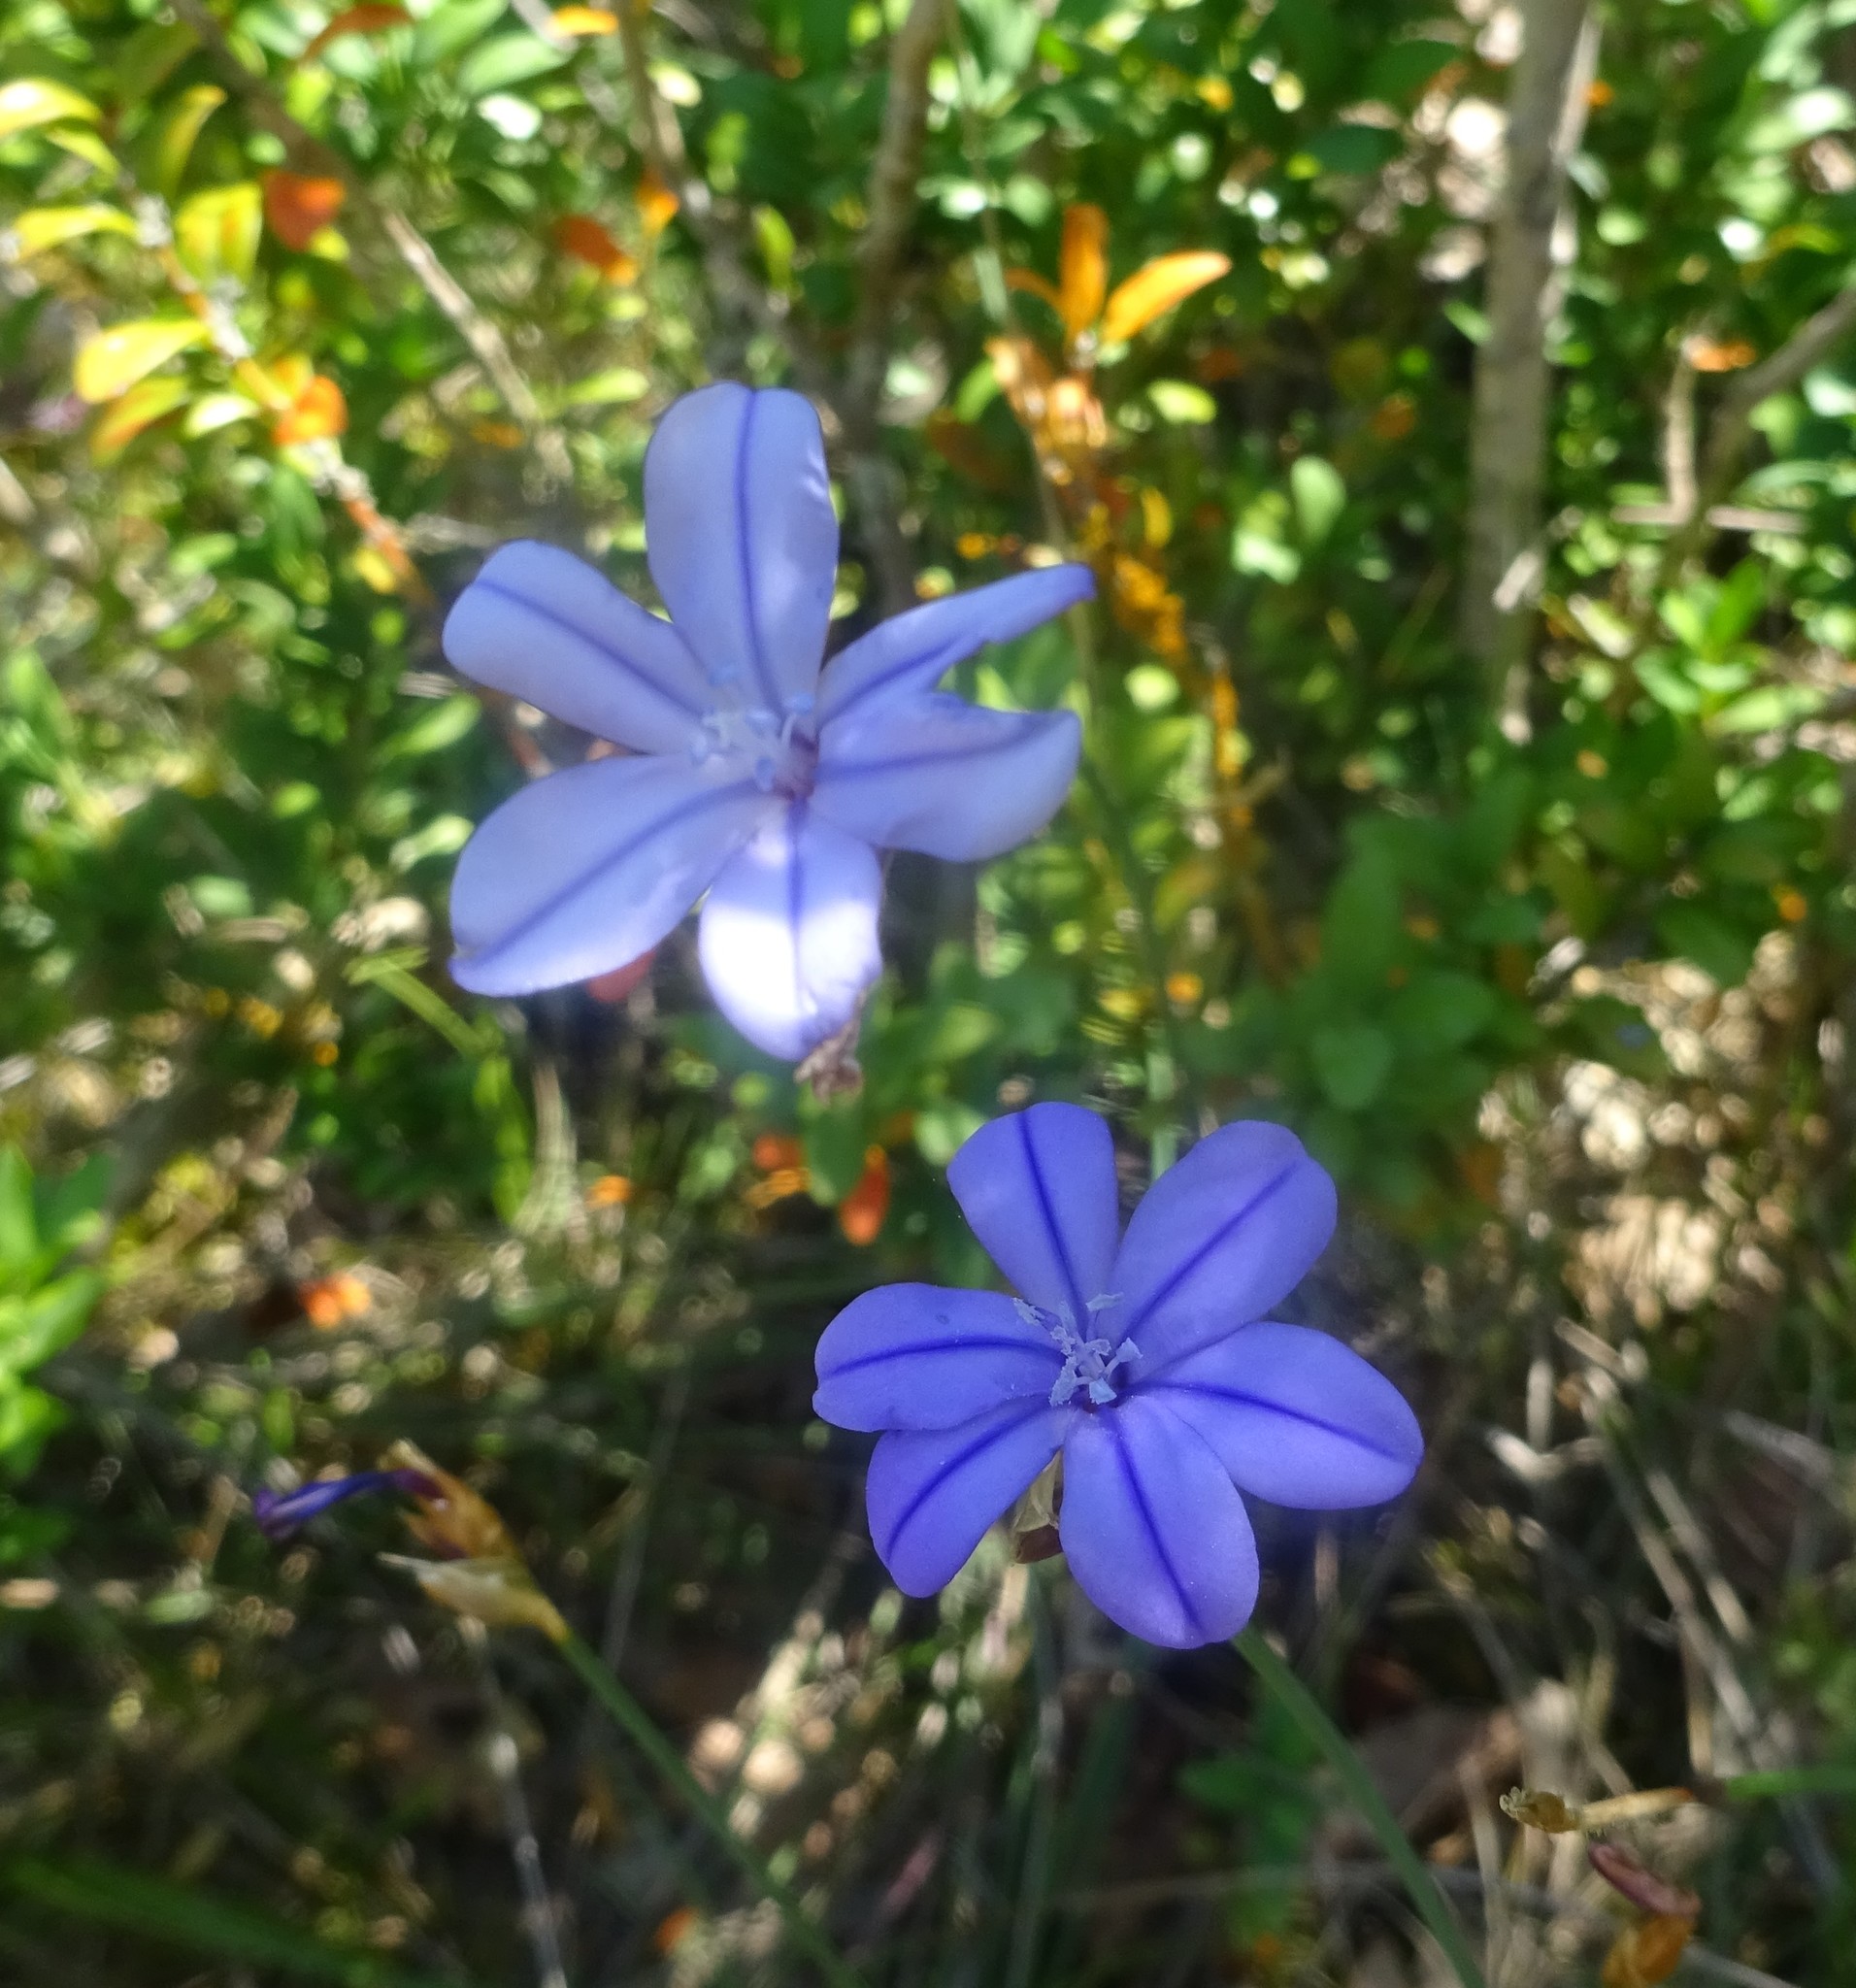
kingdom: Plantae
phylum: Tracheophyta
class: Liliopsida
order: Asparagales
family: Asparagaceae
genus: Aphyllanthes
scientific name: Aphyllanthes monspeliensis
